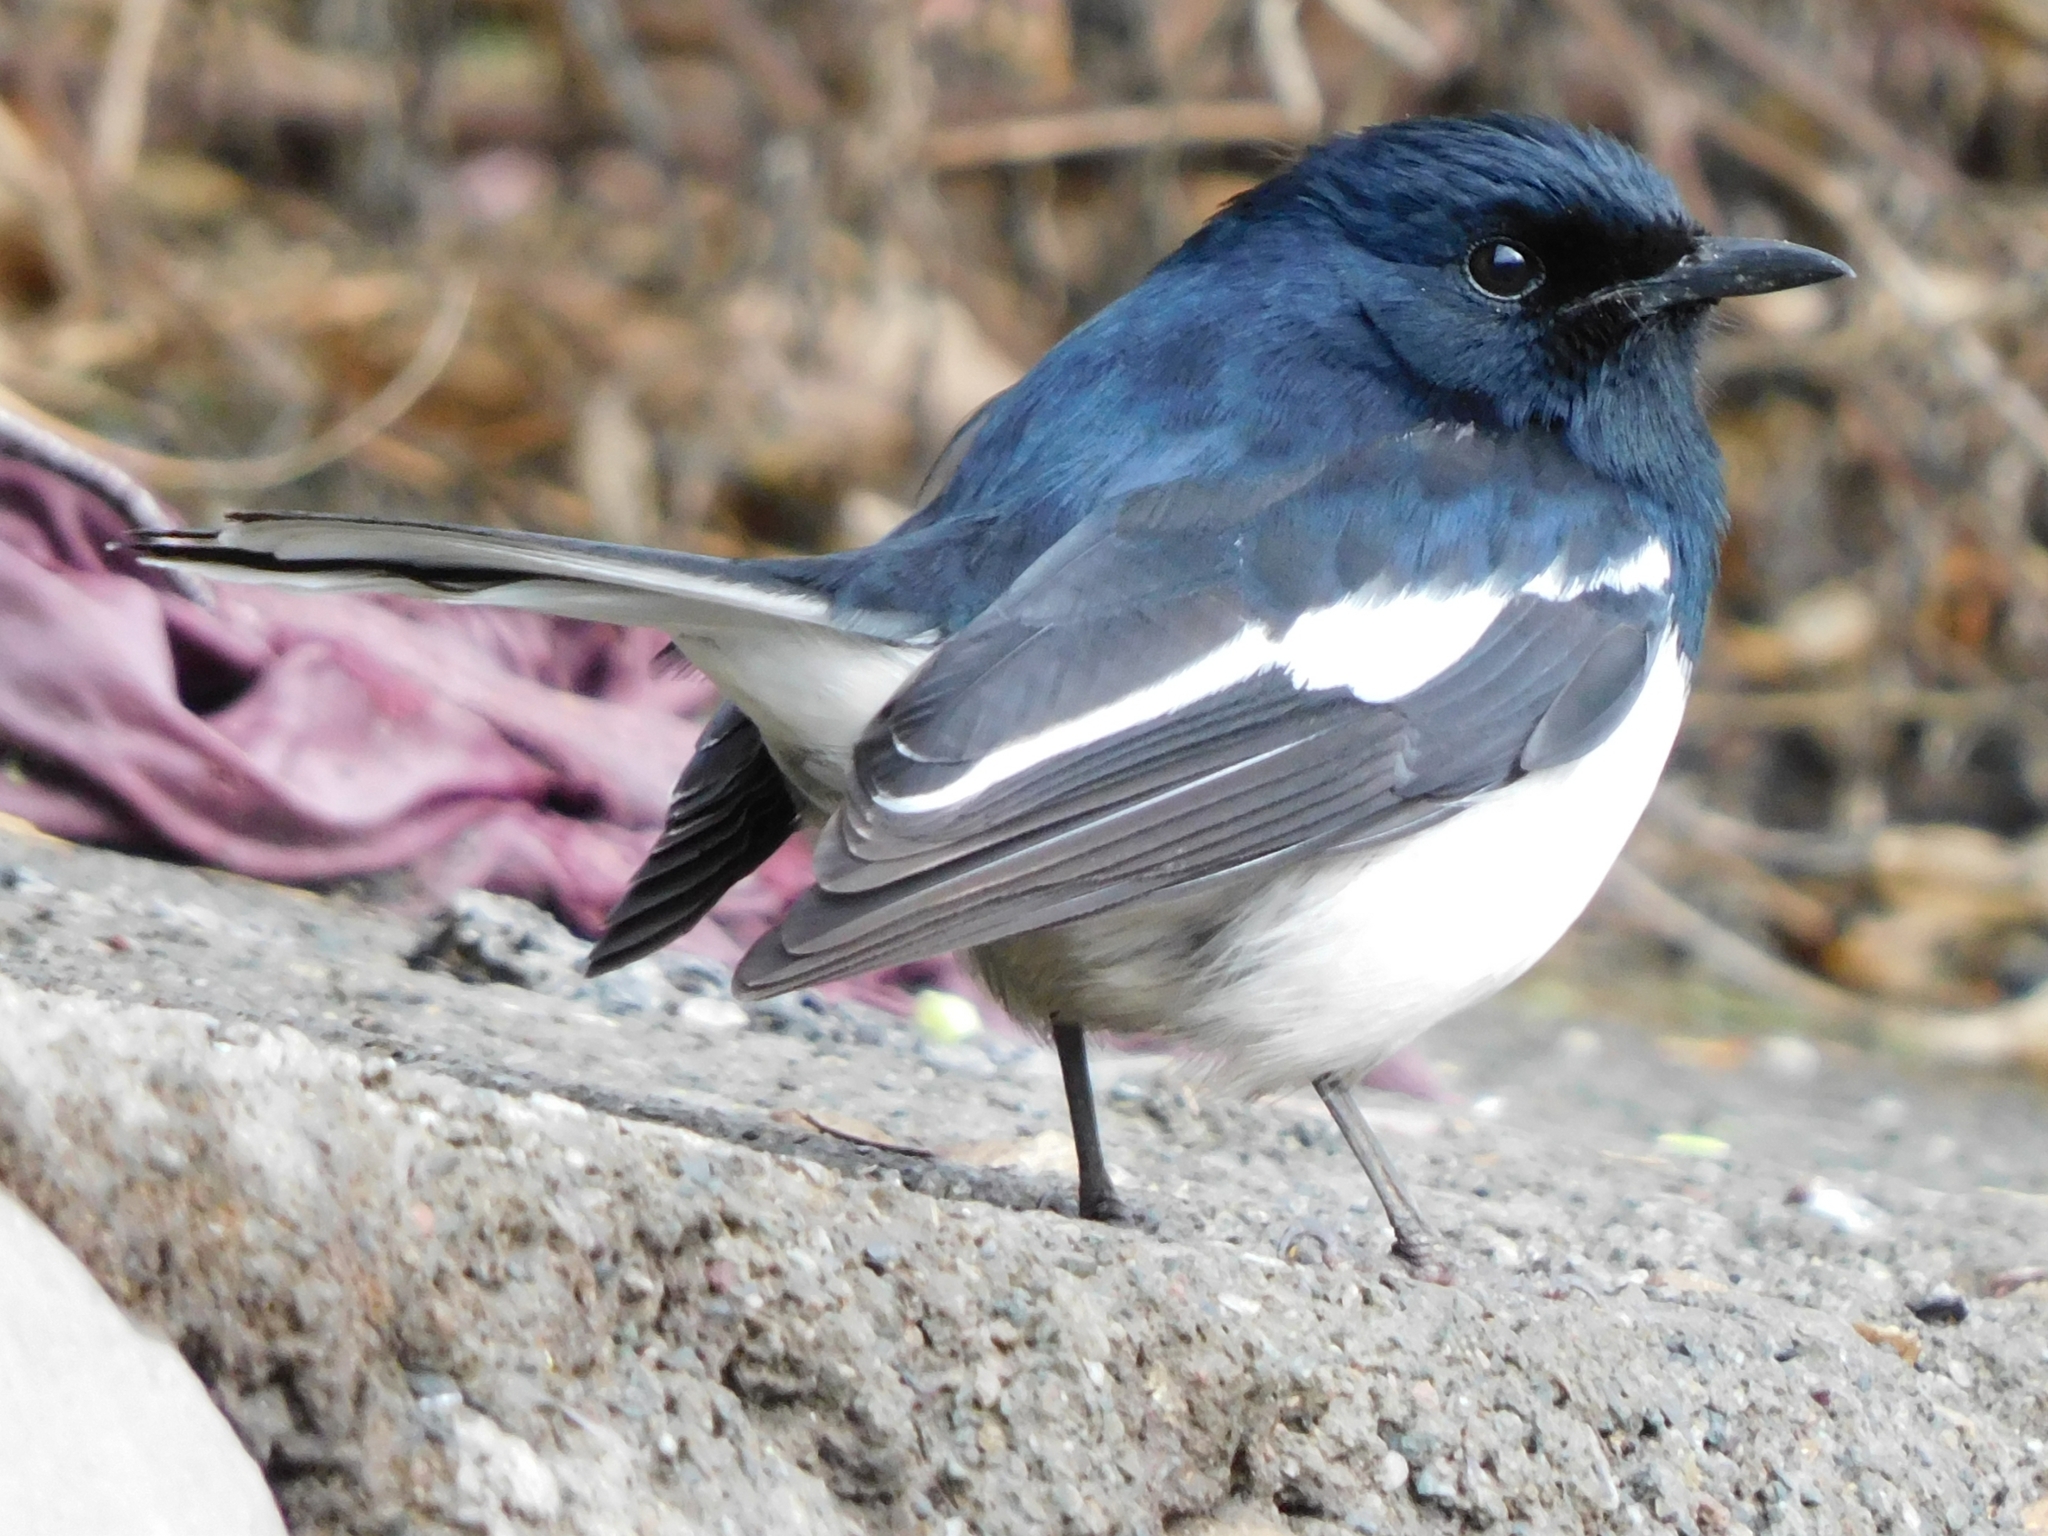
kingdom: Animalia
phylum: Chordata
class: Aves
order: Passeriformes
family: Muscicapidae
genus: Copsychus
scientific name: Copsychus saularis
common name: Oriental magpie-robin
